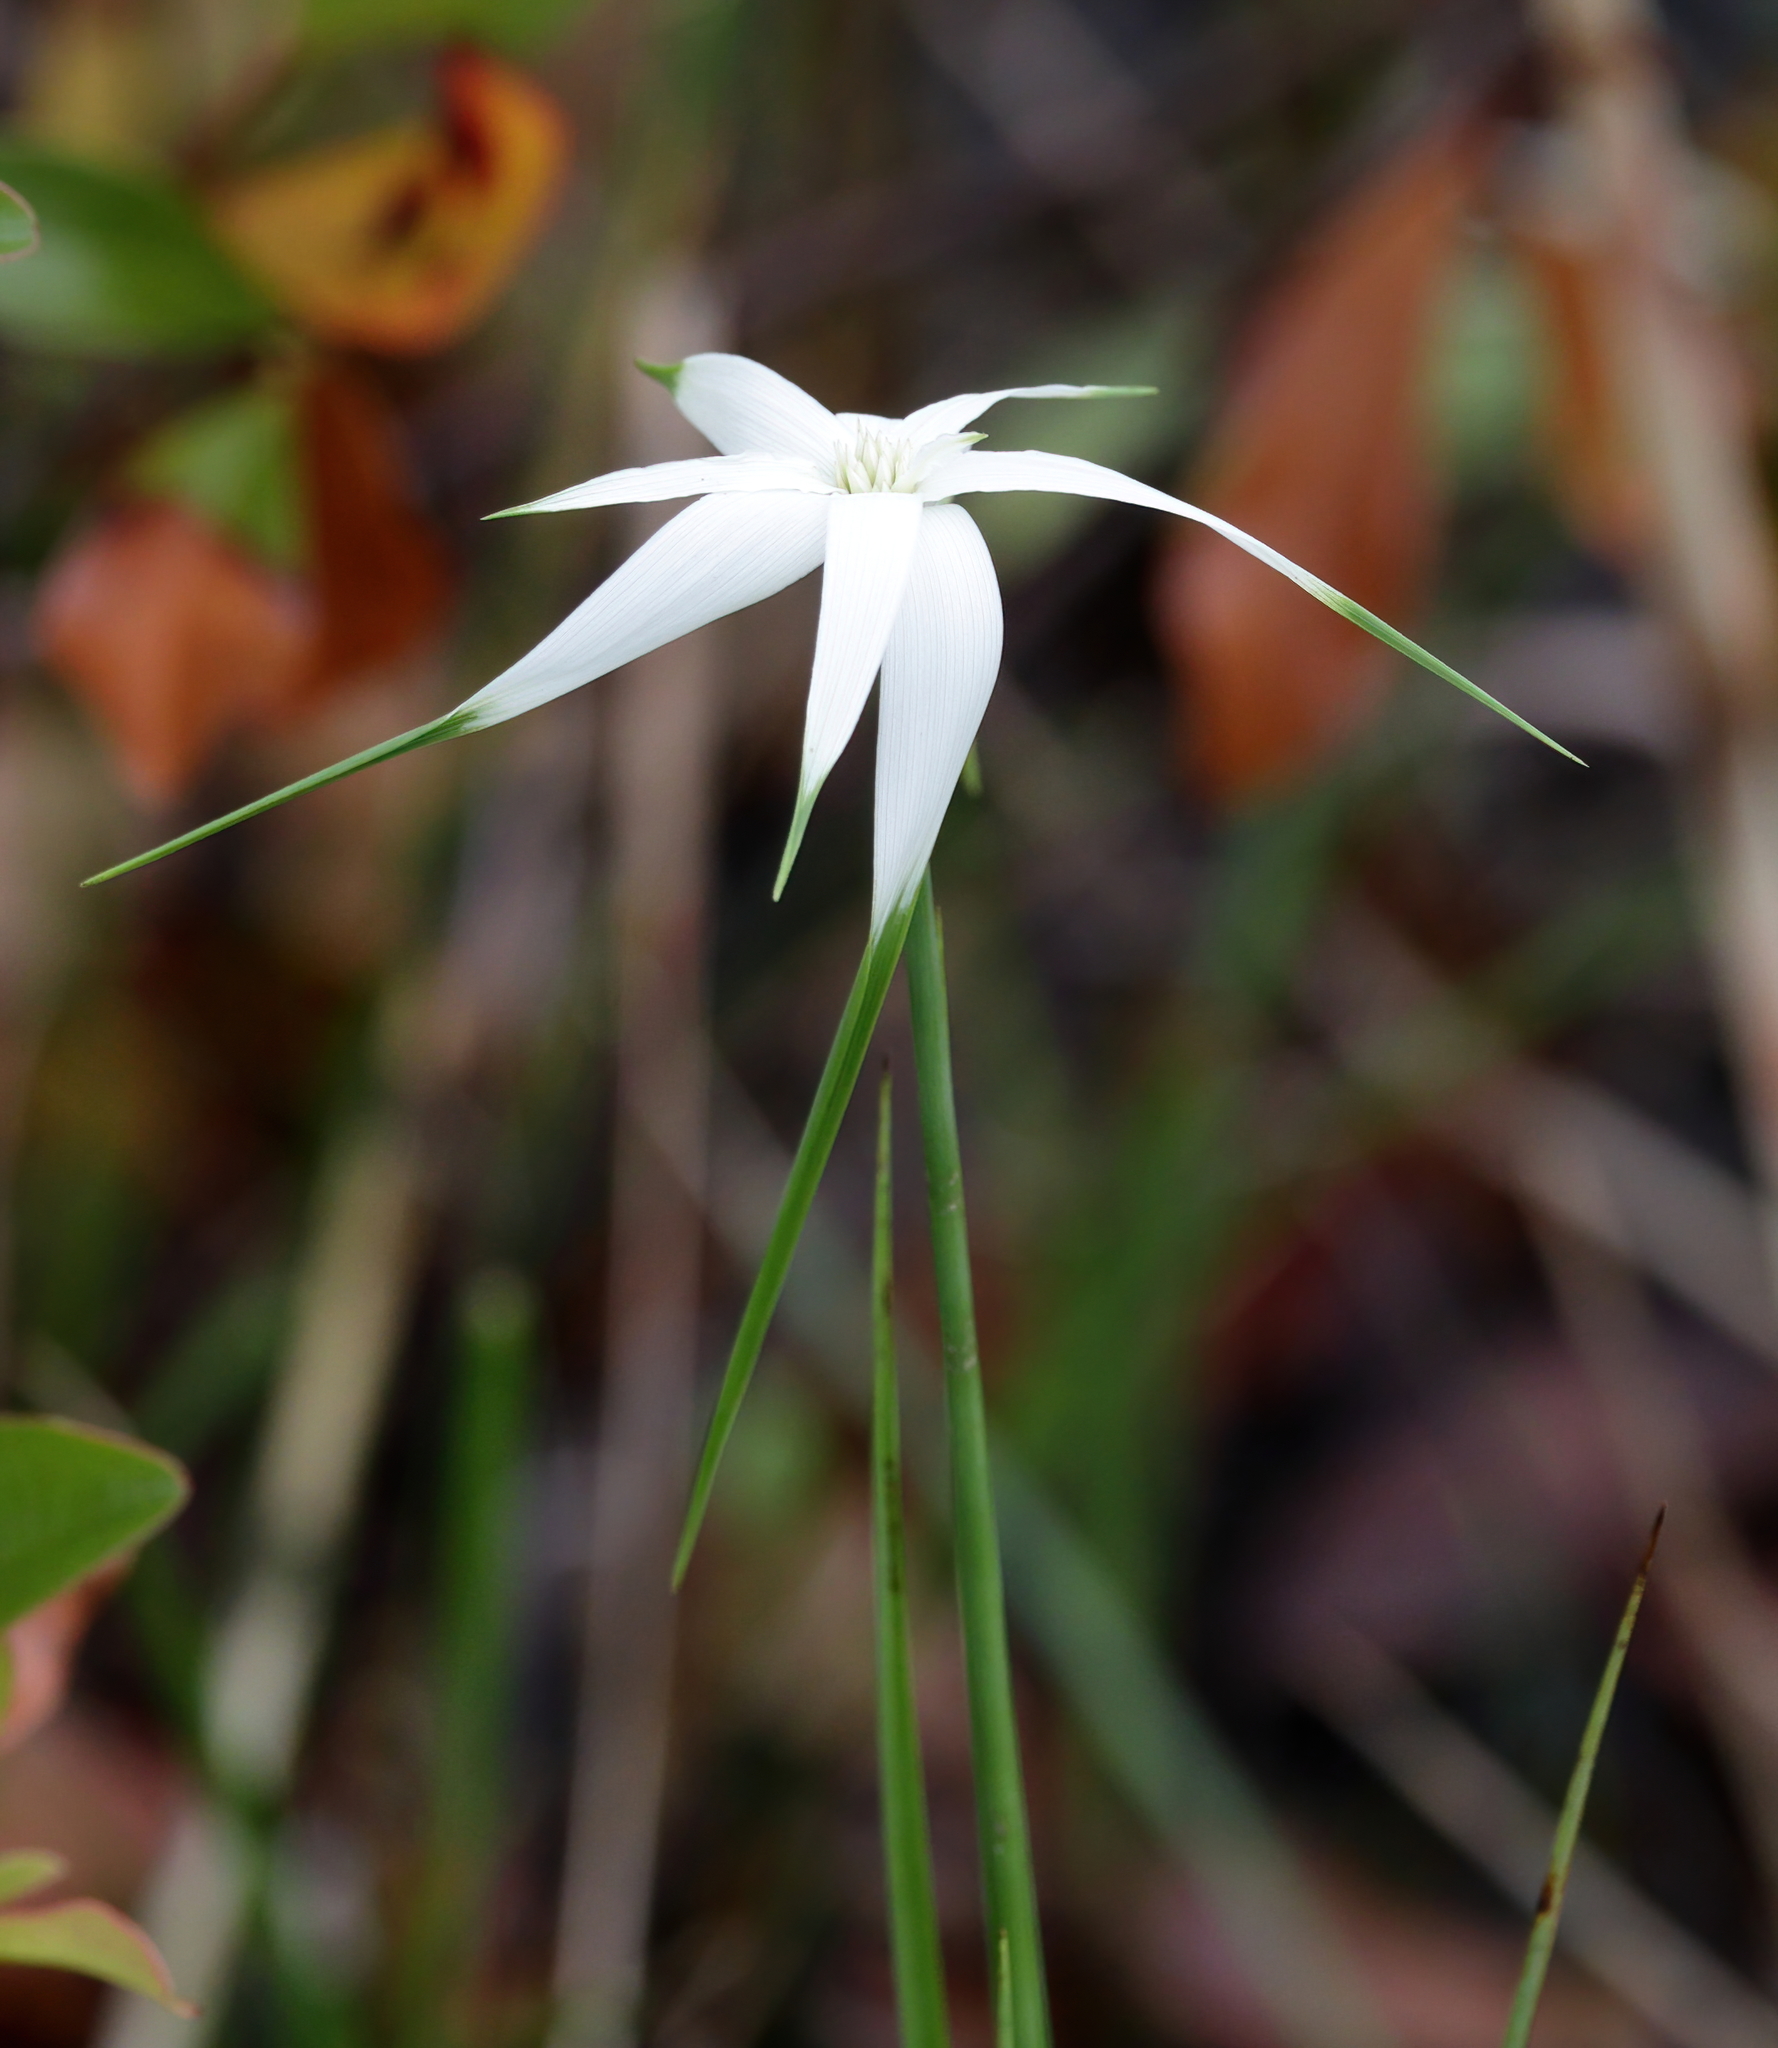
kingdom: Plantae
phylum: Tracheophyta
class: Liliopsida
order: Poales
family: Cyperaceae
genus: Rhynchospora
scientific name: Rhynchospora latifolia
